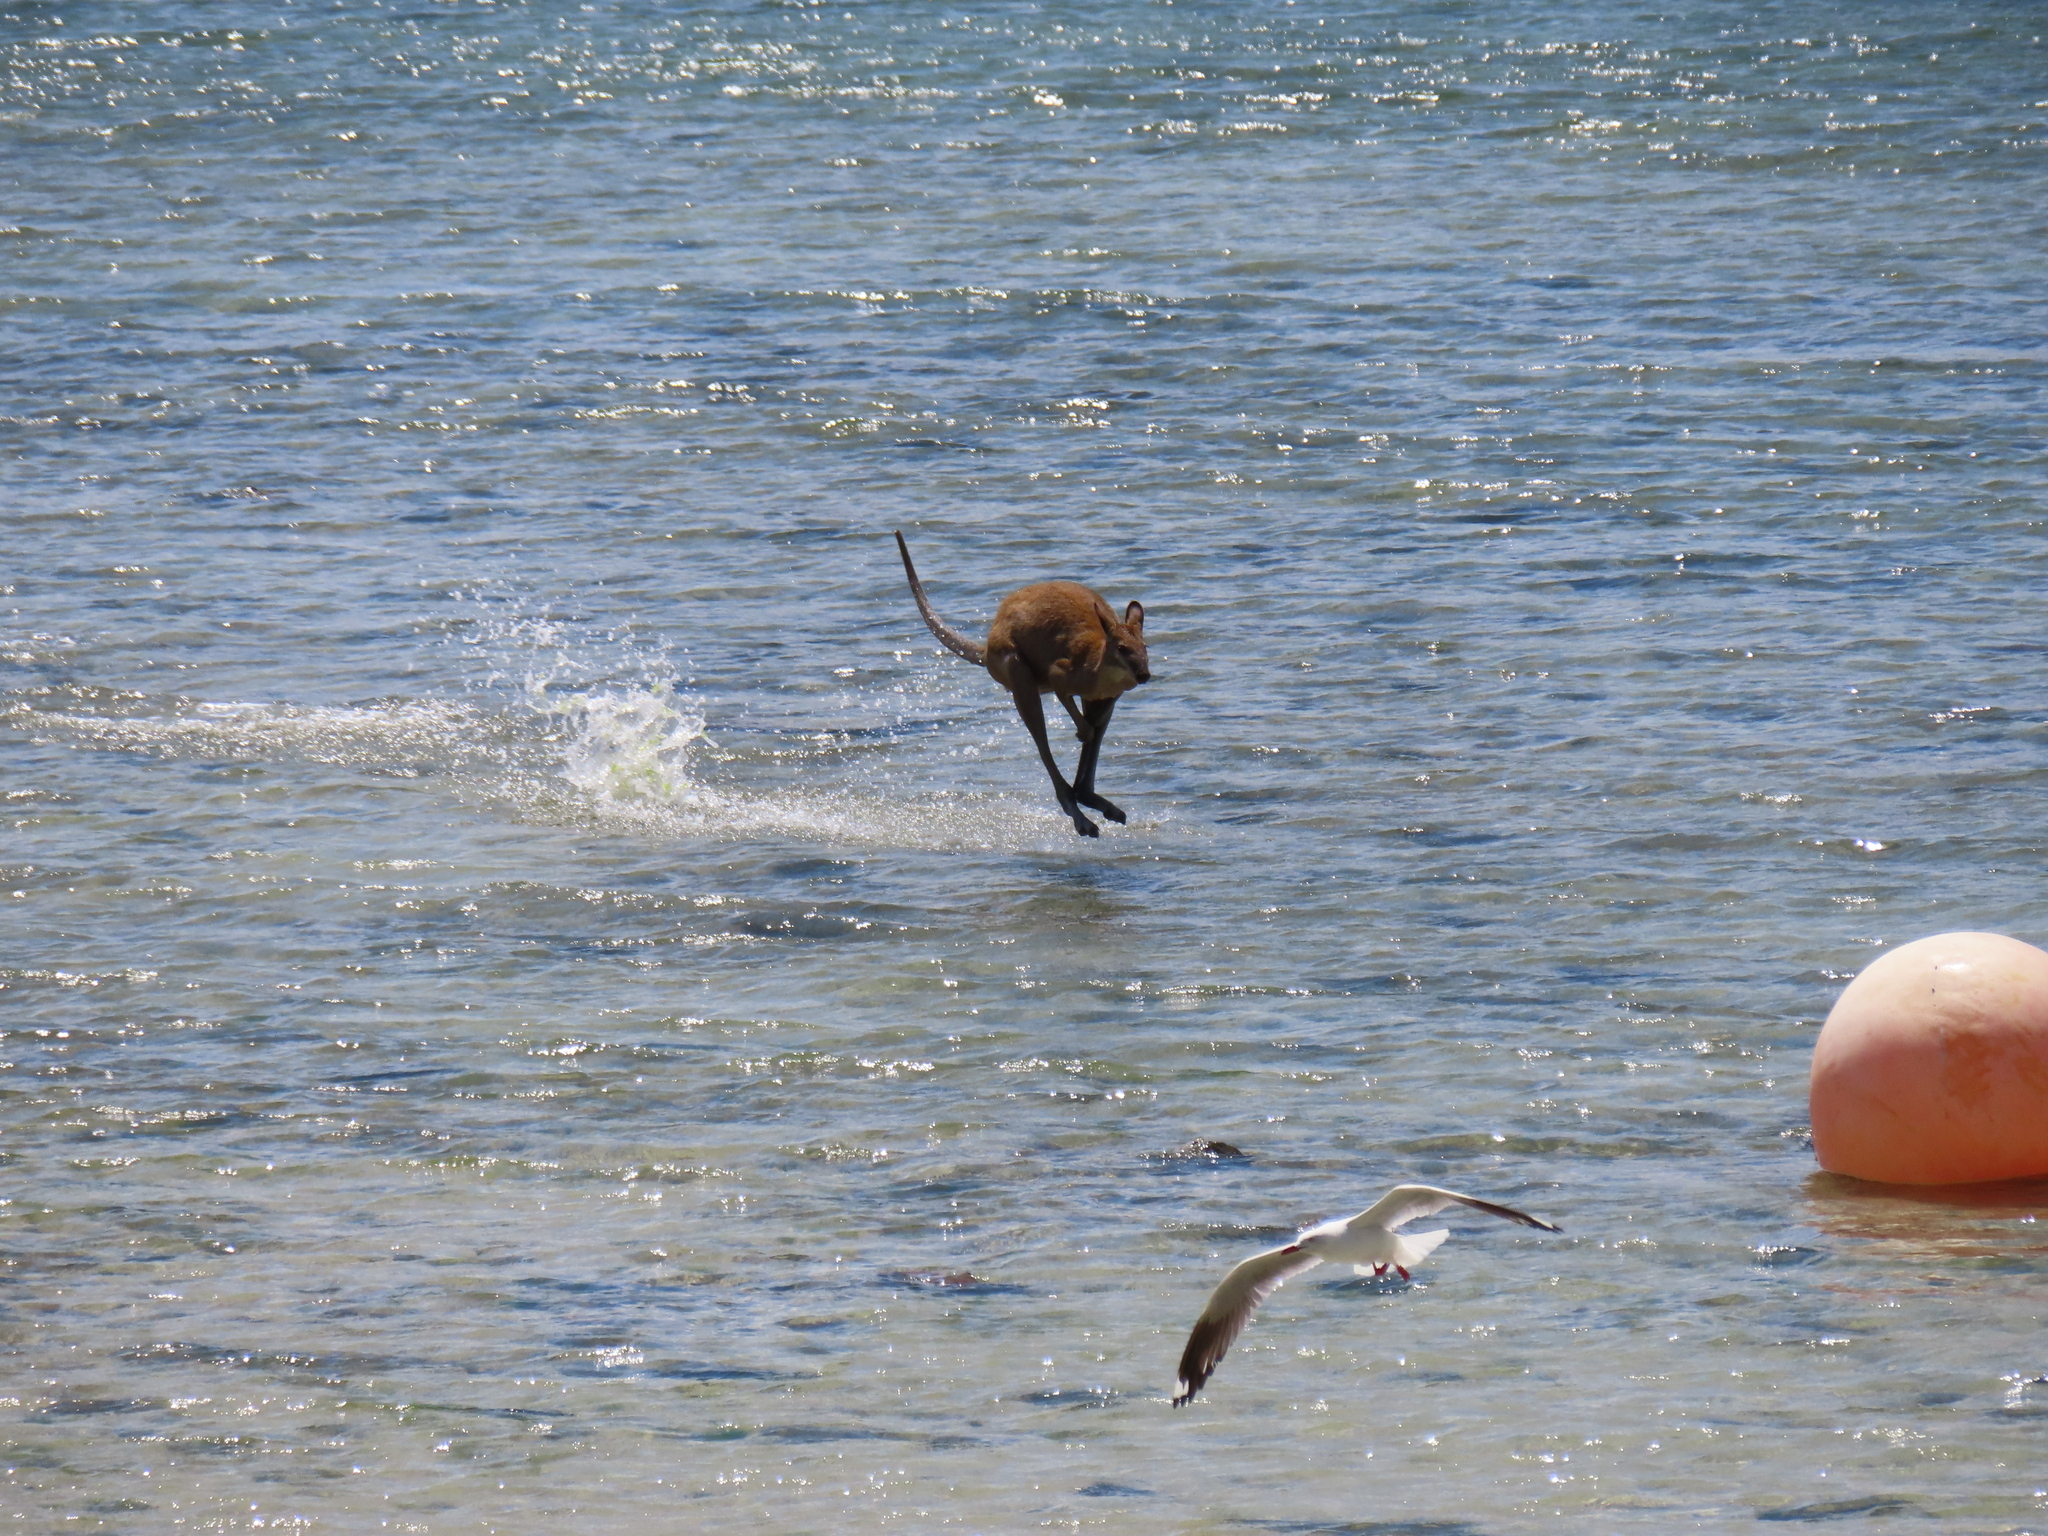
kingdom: Animalia
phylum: Chordata
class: Mammalia
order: Diprotodontia
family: Macropodidae
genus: Macropus
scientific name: Macropus agilis
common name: Agile wallaby
